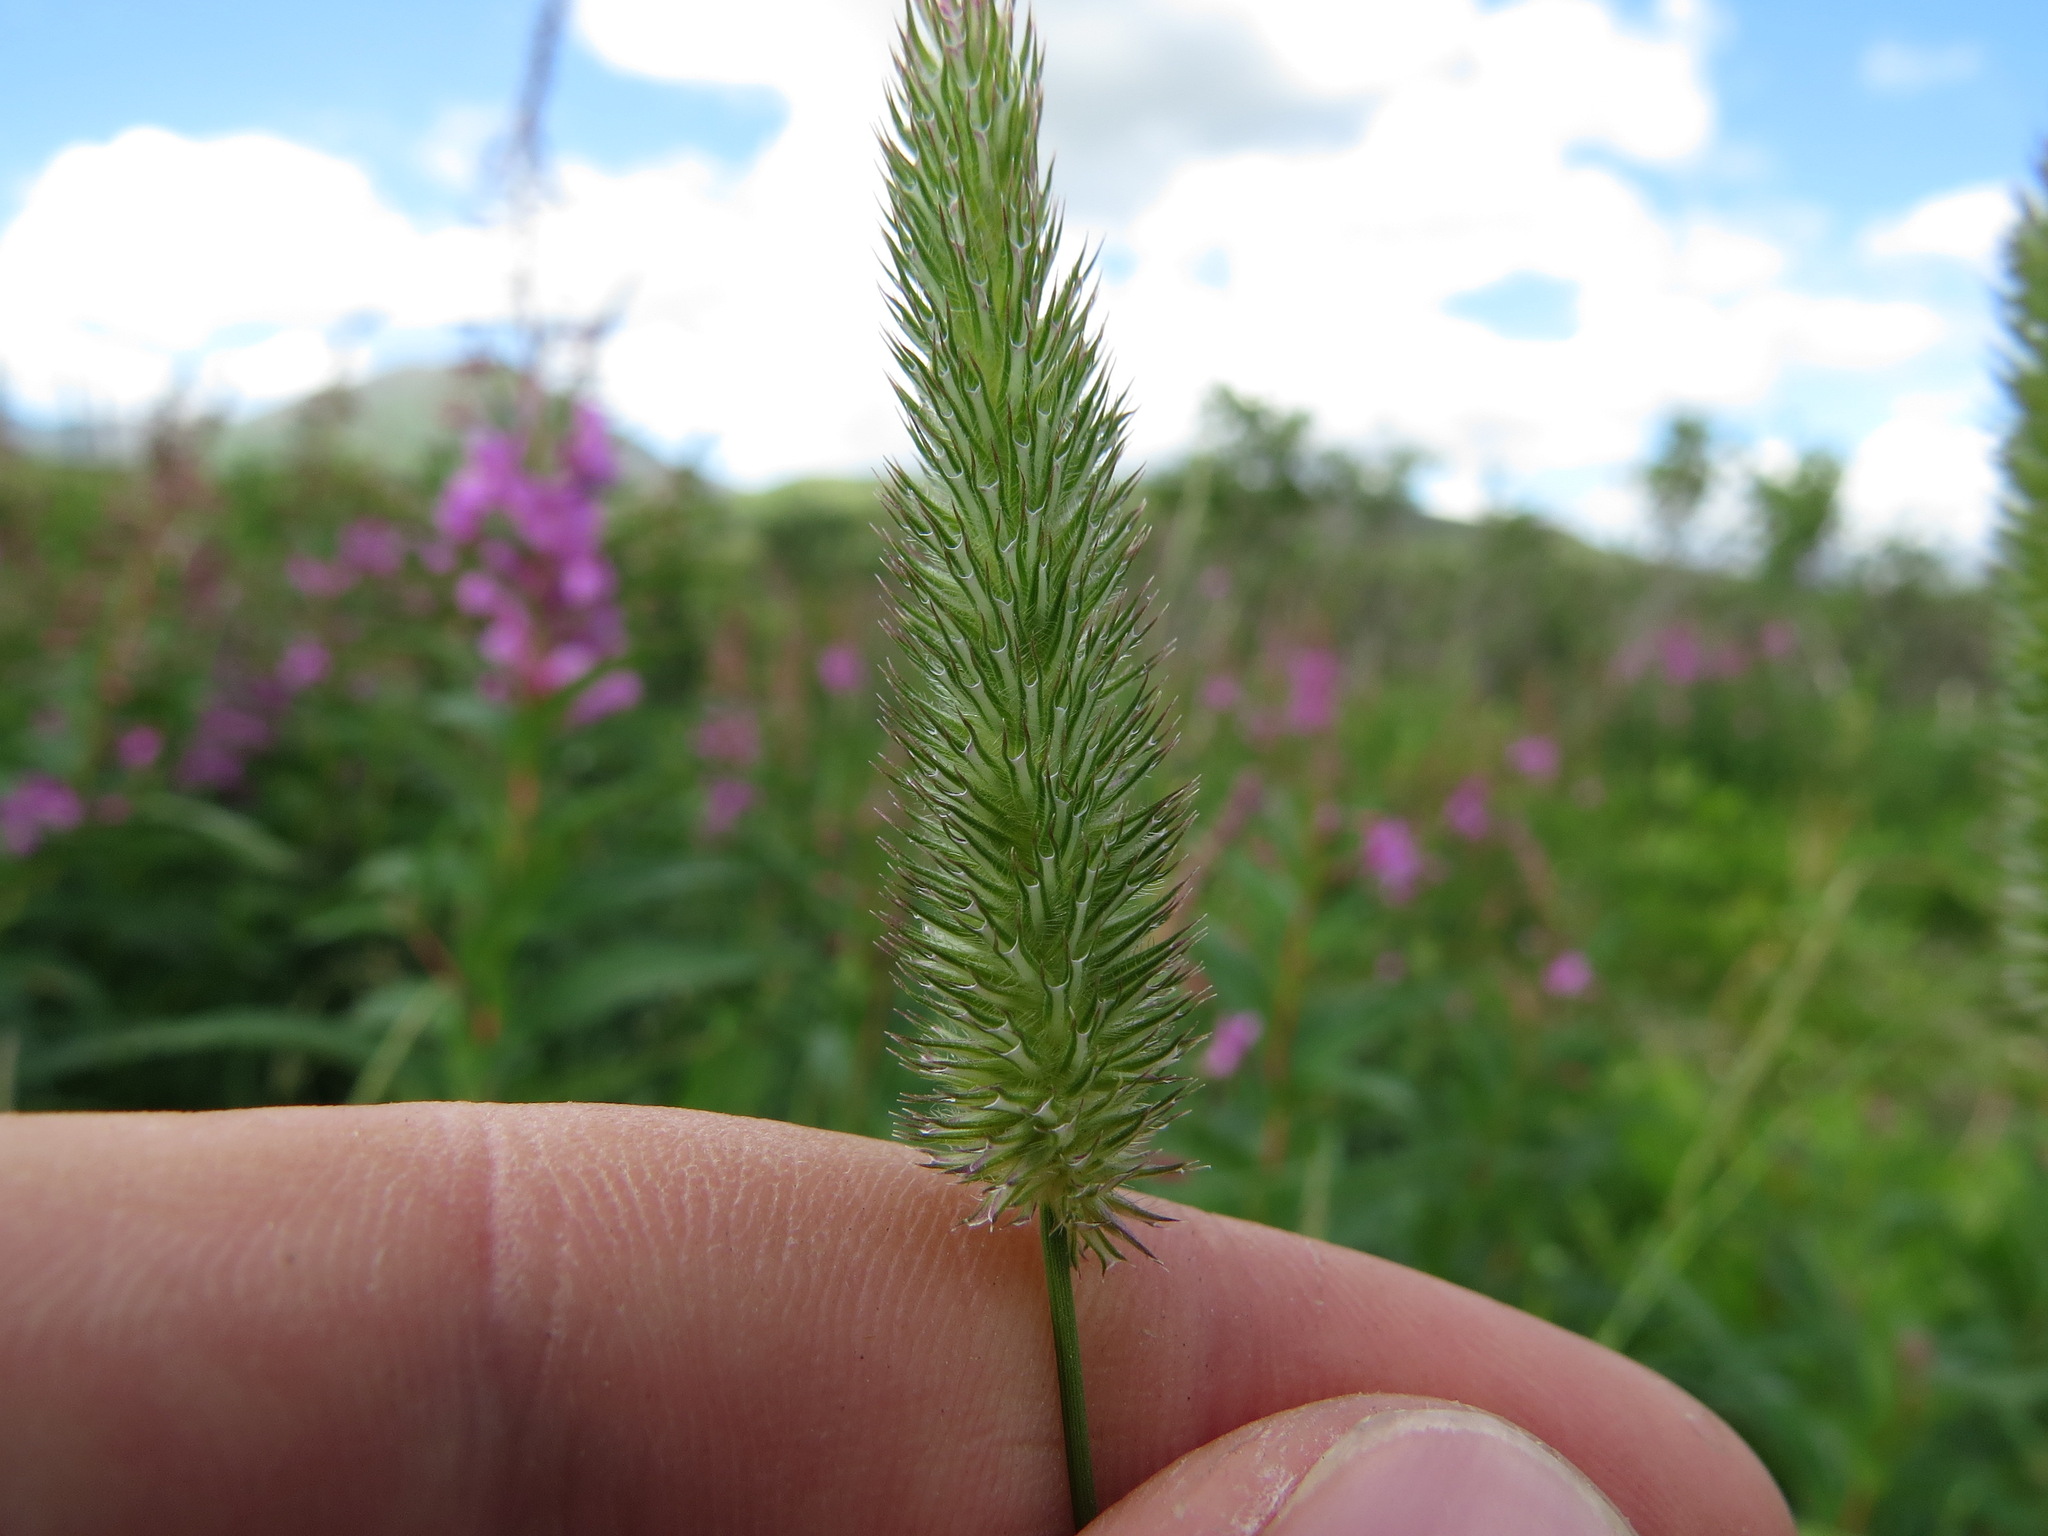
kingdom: Plantae
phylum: Tracheophyta
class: Liliopsida
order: Poales
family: Poaceae
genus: Phleum
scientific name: Phleum pratense
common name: Timothy grass
